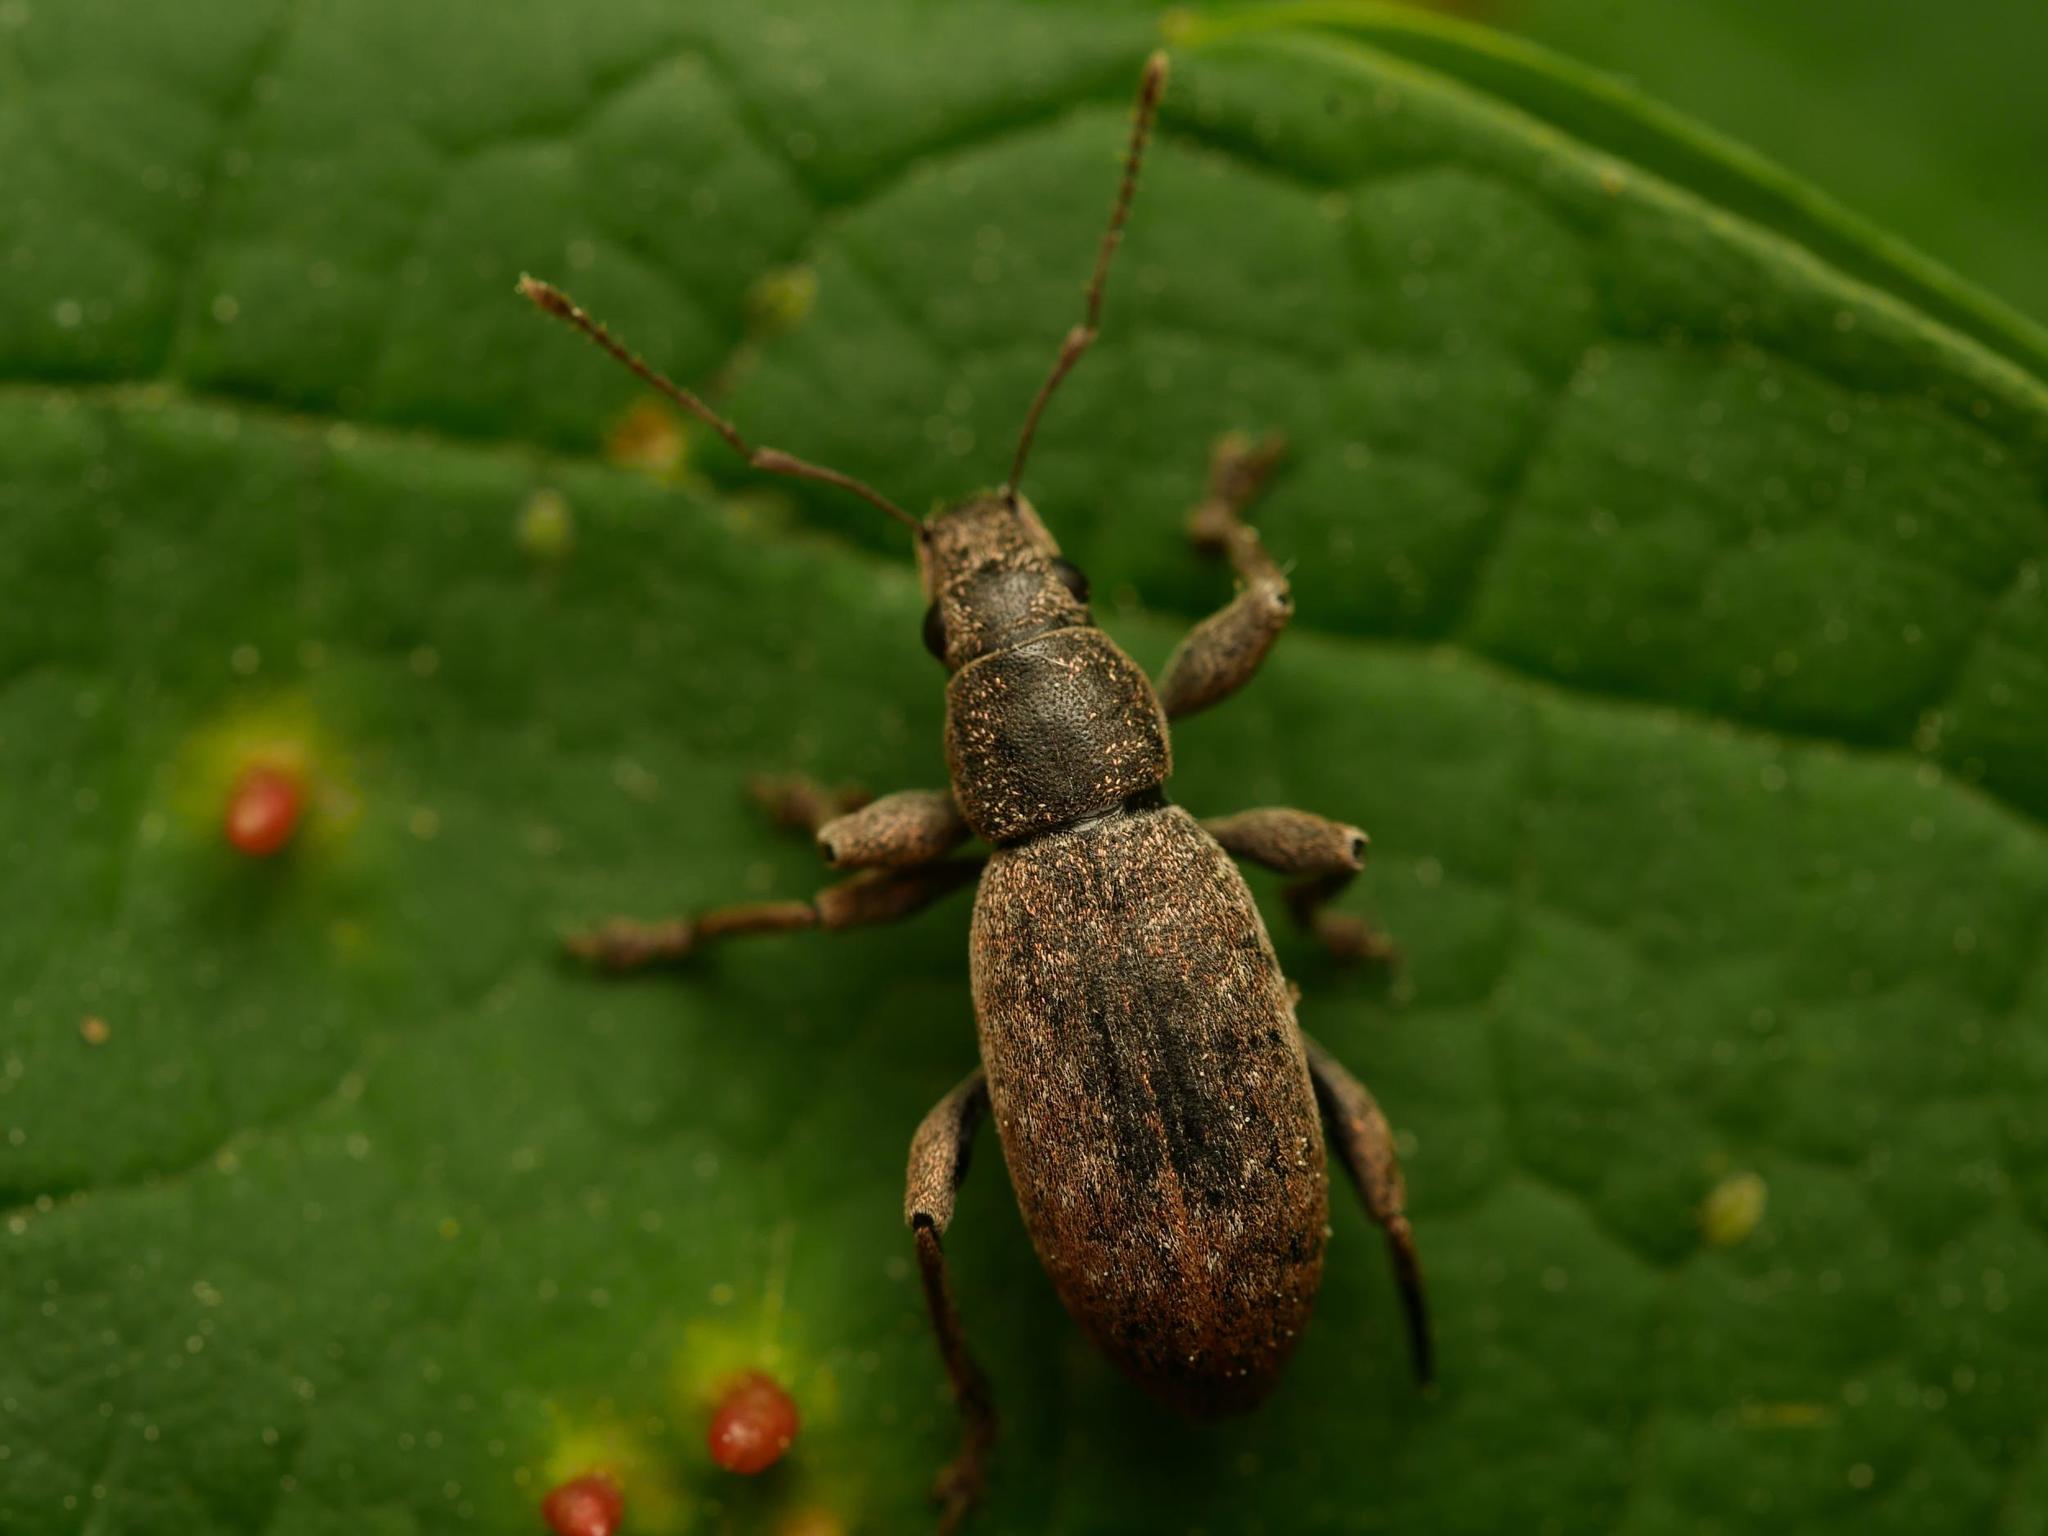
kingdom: Animalia
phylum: Arthropoda
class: Insecta
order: Coleoptera
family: Curculionidae
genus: Brachyderes
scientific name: Brachyderes incanus
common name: Weevil
